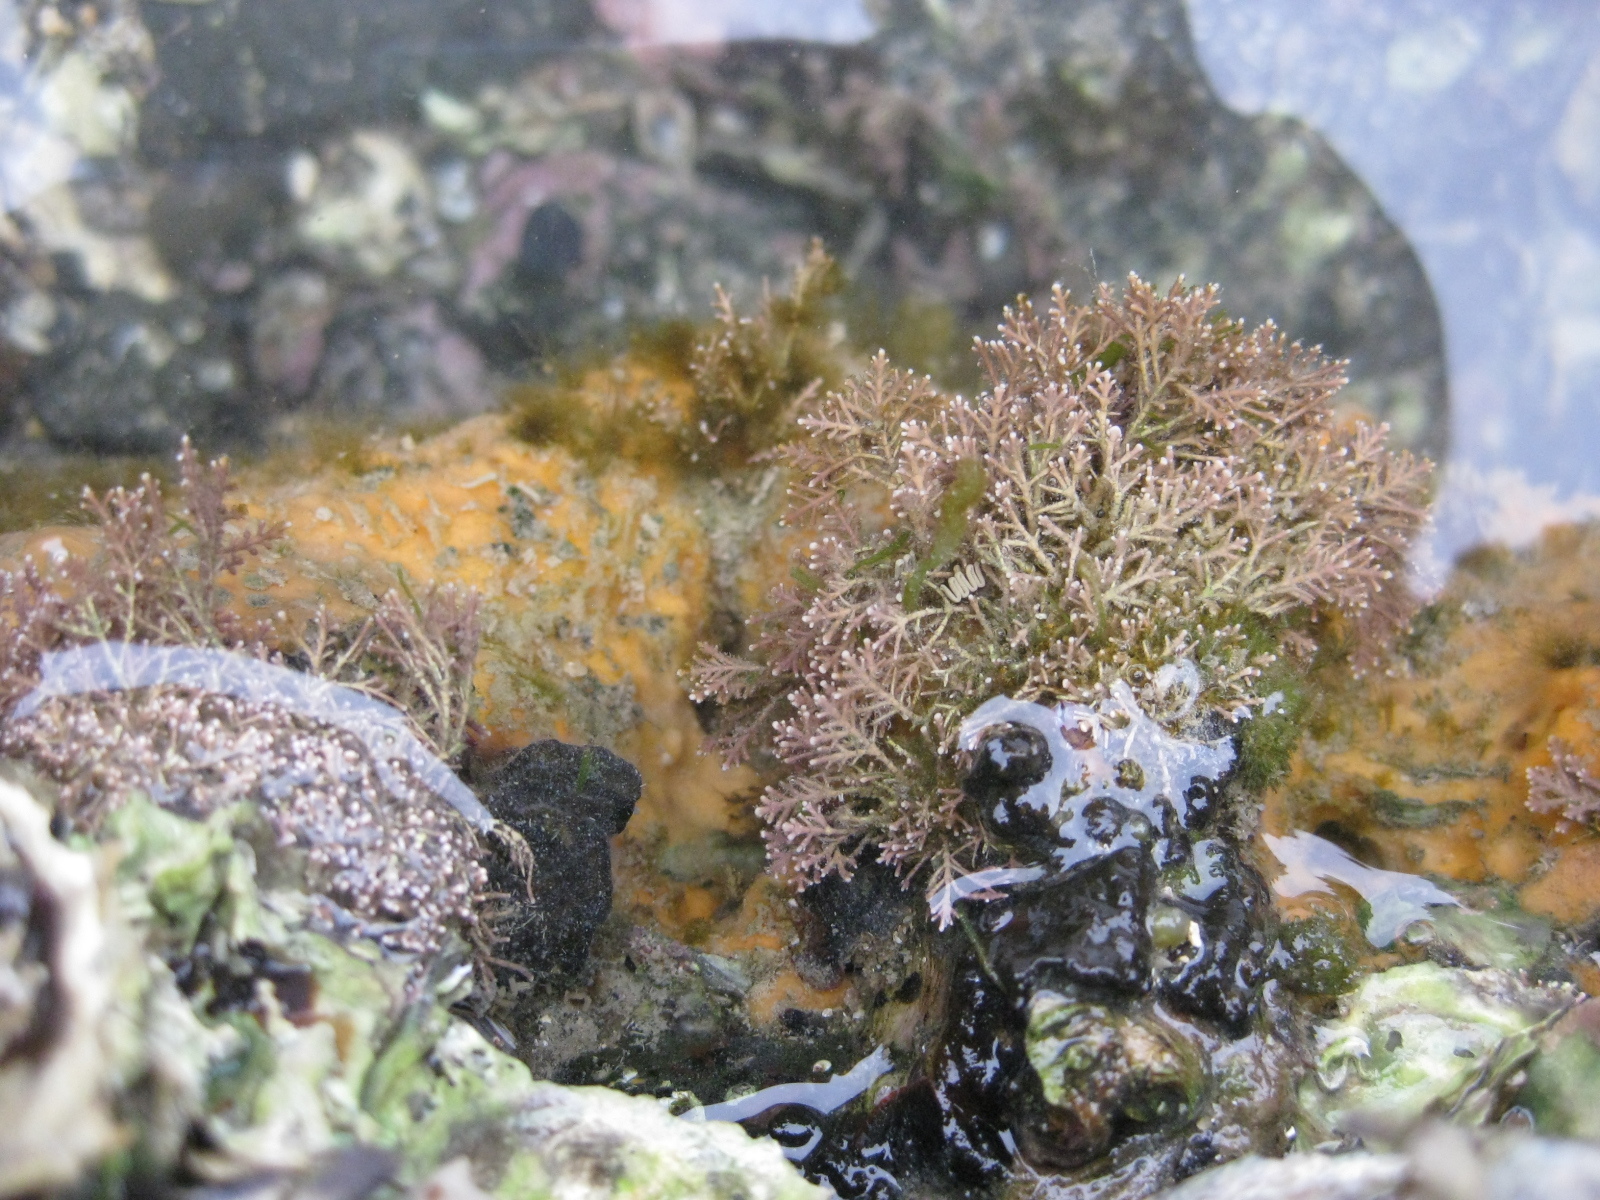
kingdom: Plantae
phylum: Rhodophyta
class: Florideophyceae
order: Corallinales
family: Corallinaceae
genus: Corallina
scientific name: Corallina officinalis
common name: Coral weed
